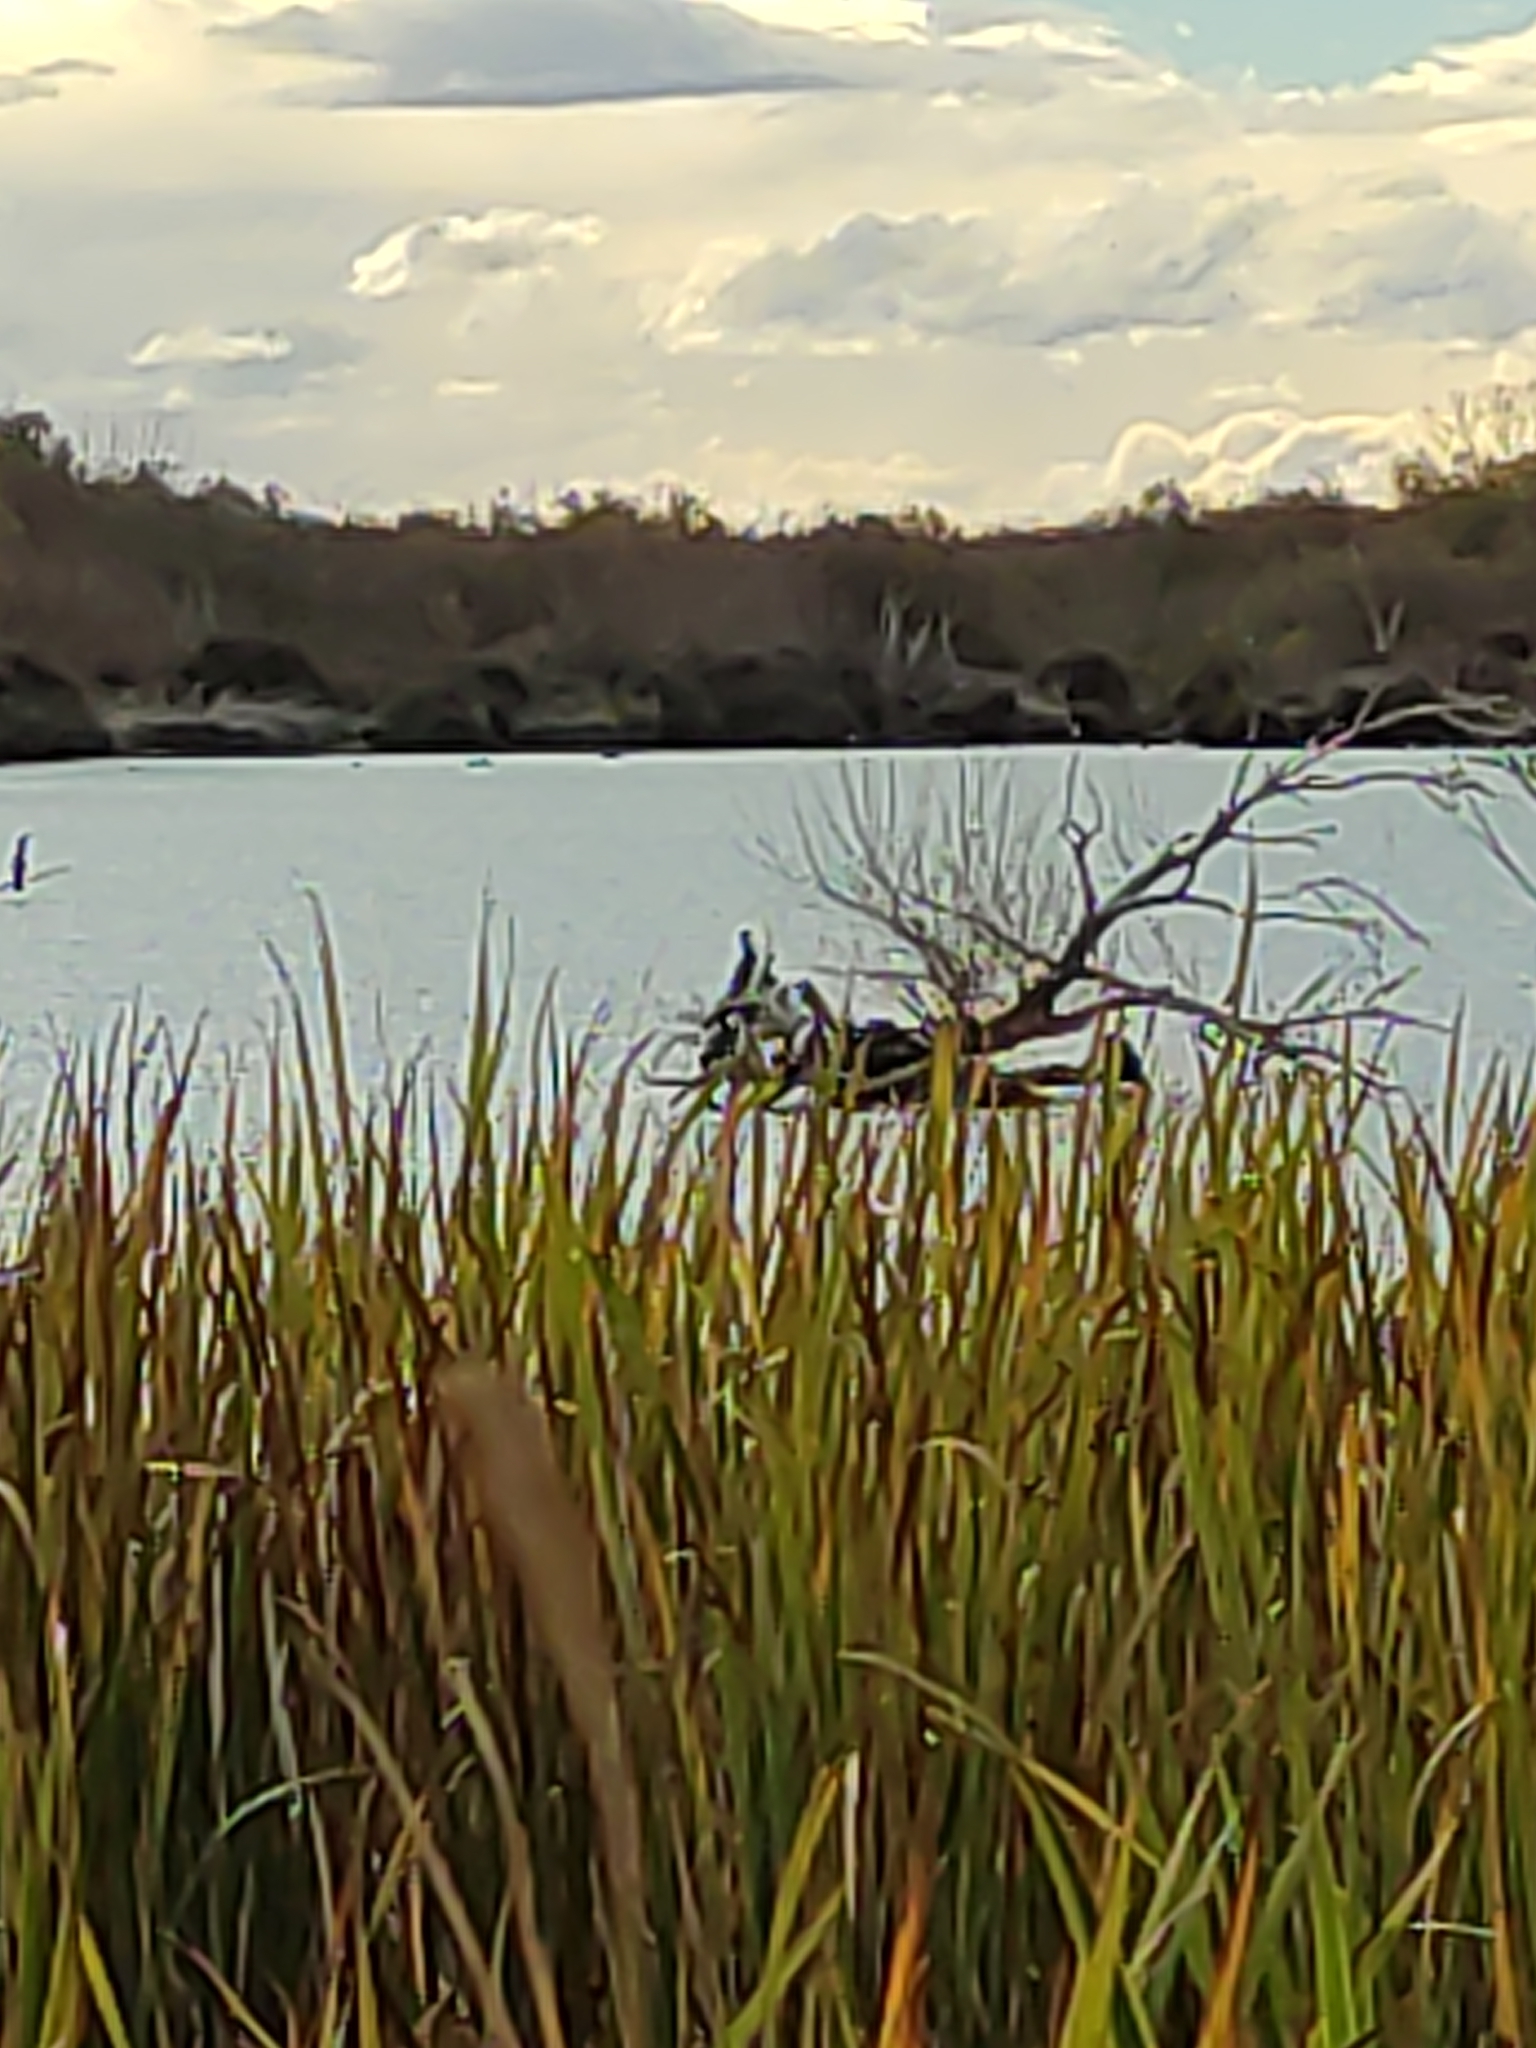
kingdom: Animalia
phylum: Chordata
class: Aves
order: Suliformes
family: Phalacrocoracidae
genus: Phalacrocorax
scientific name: Phalacrocorax varius
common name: Pied cormorant
